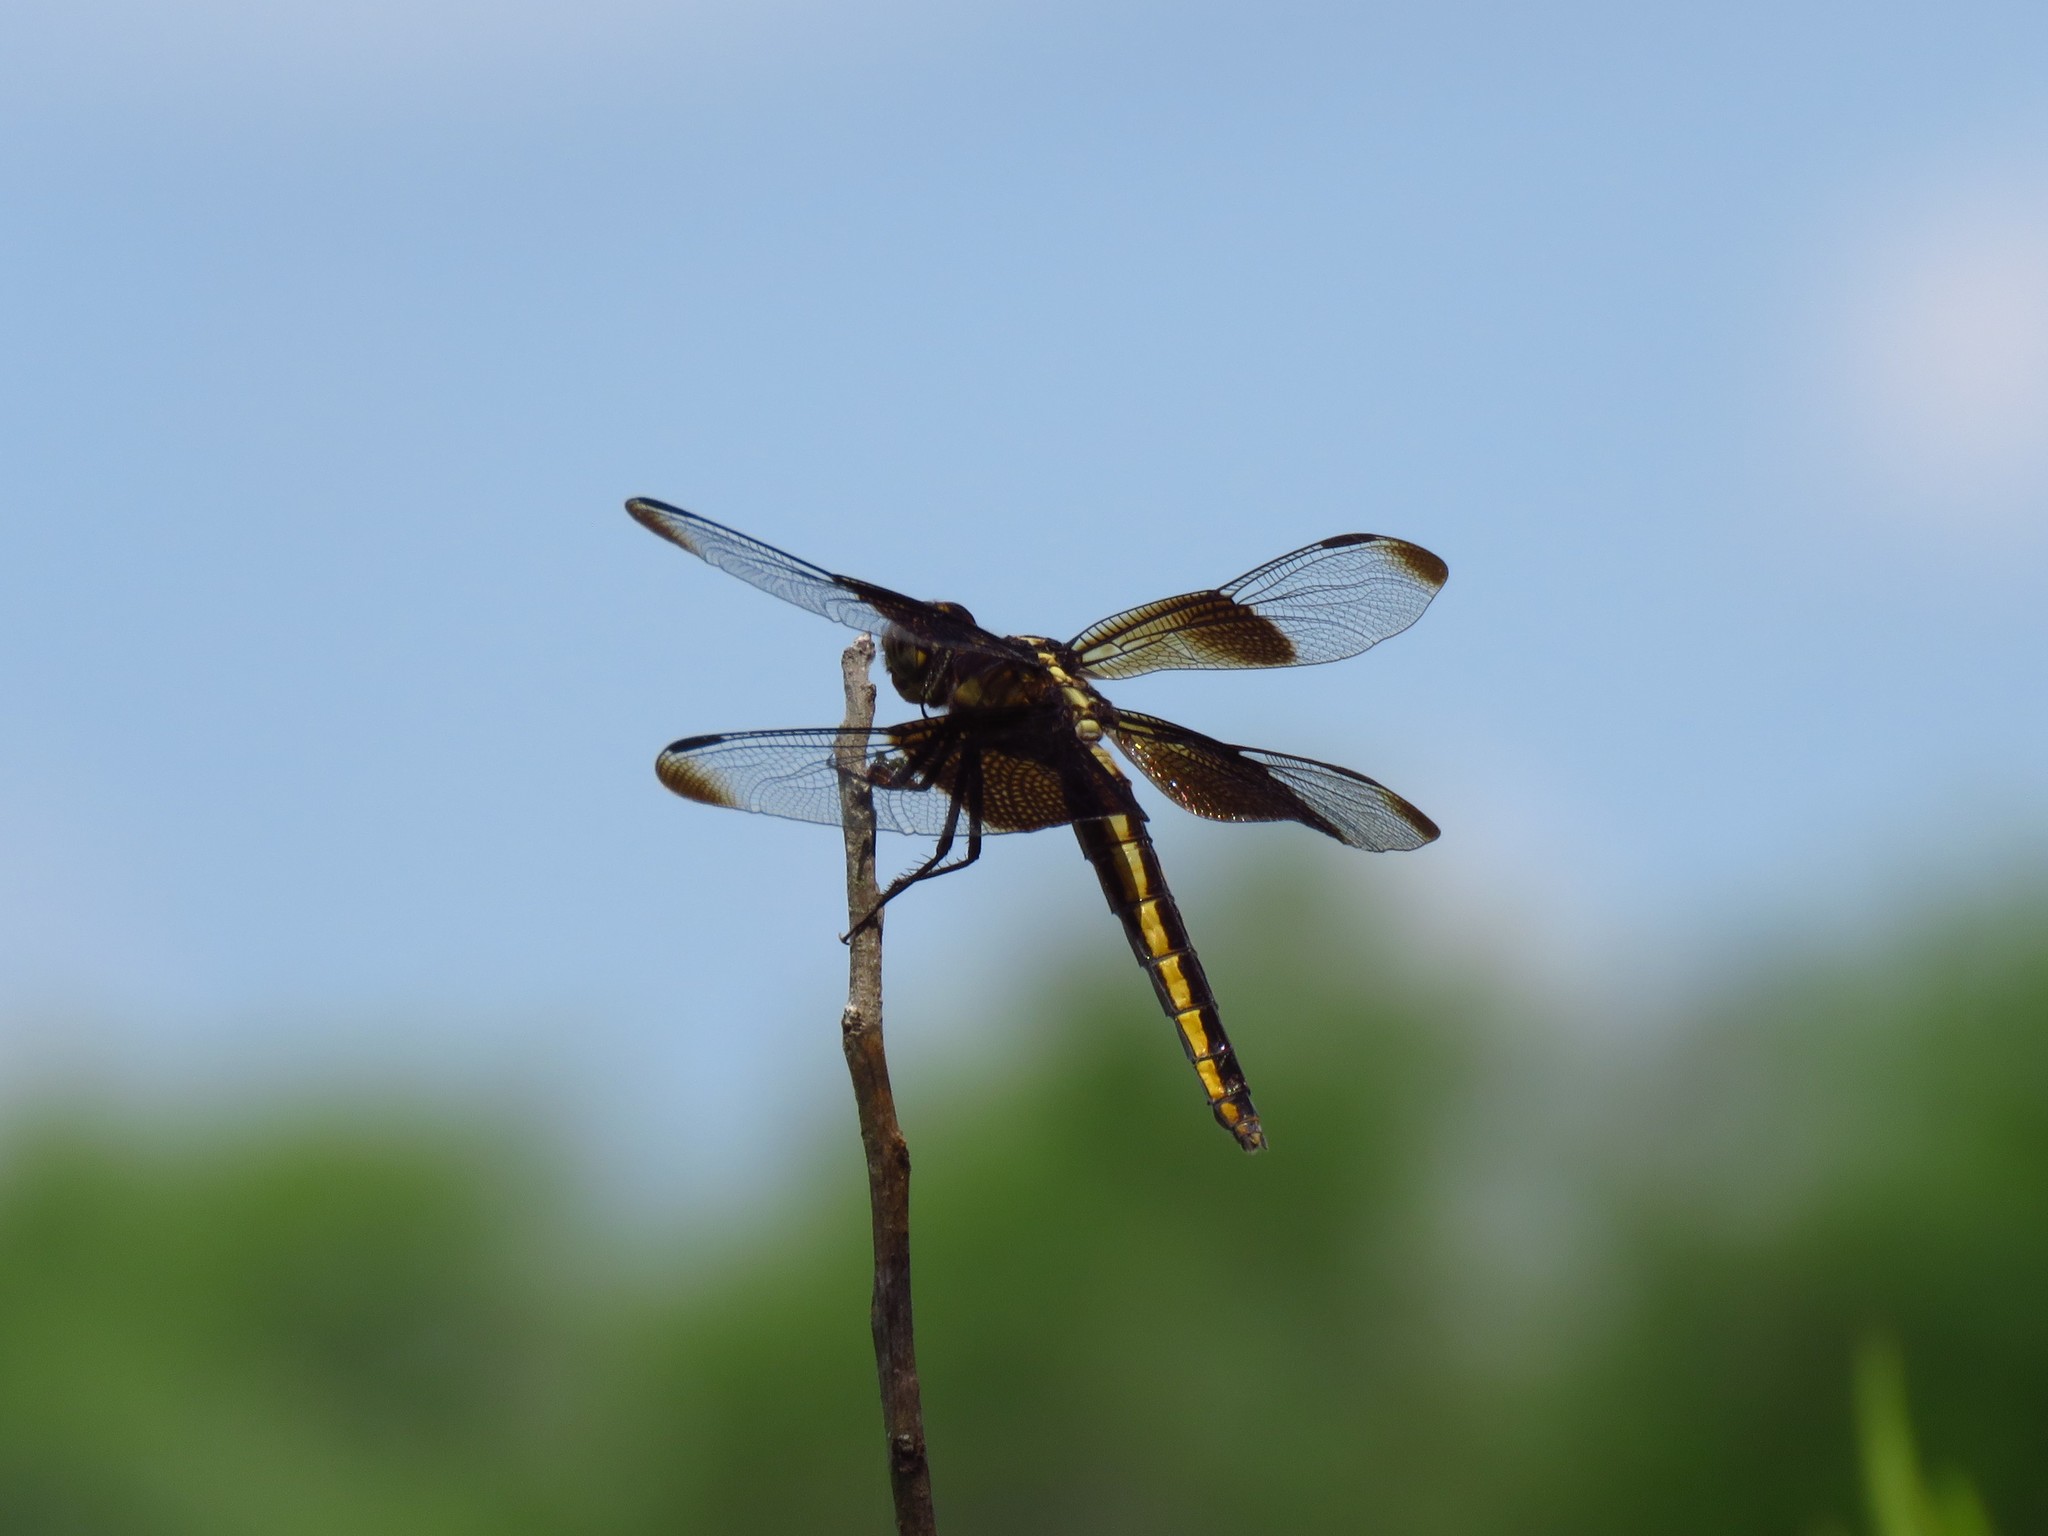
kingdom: Animalia
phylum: Arthropoda
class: Insecta
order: Odonata
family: Libellulidae
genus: Libellula
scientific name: Libellula luctuosa
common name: Widow skimmer
